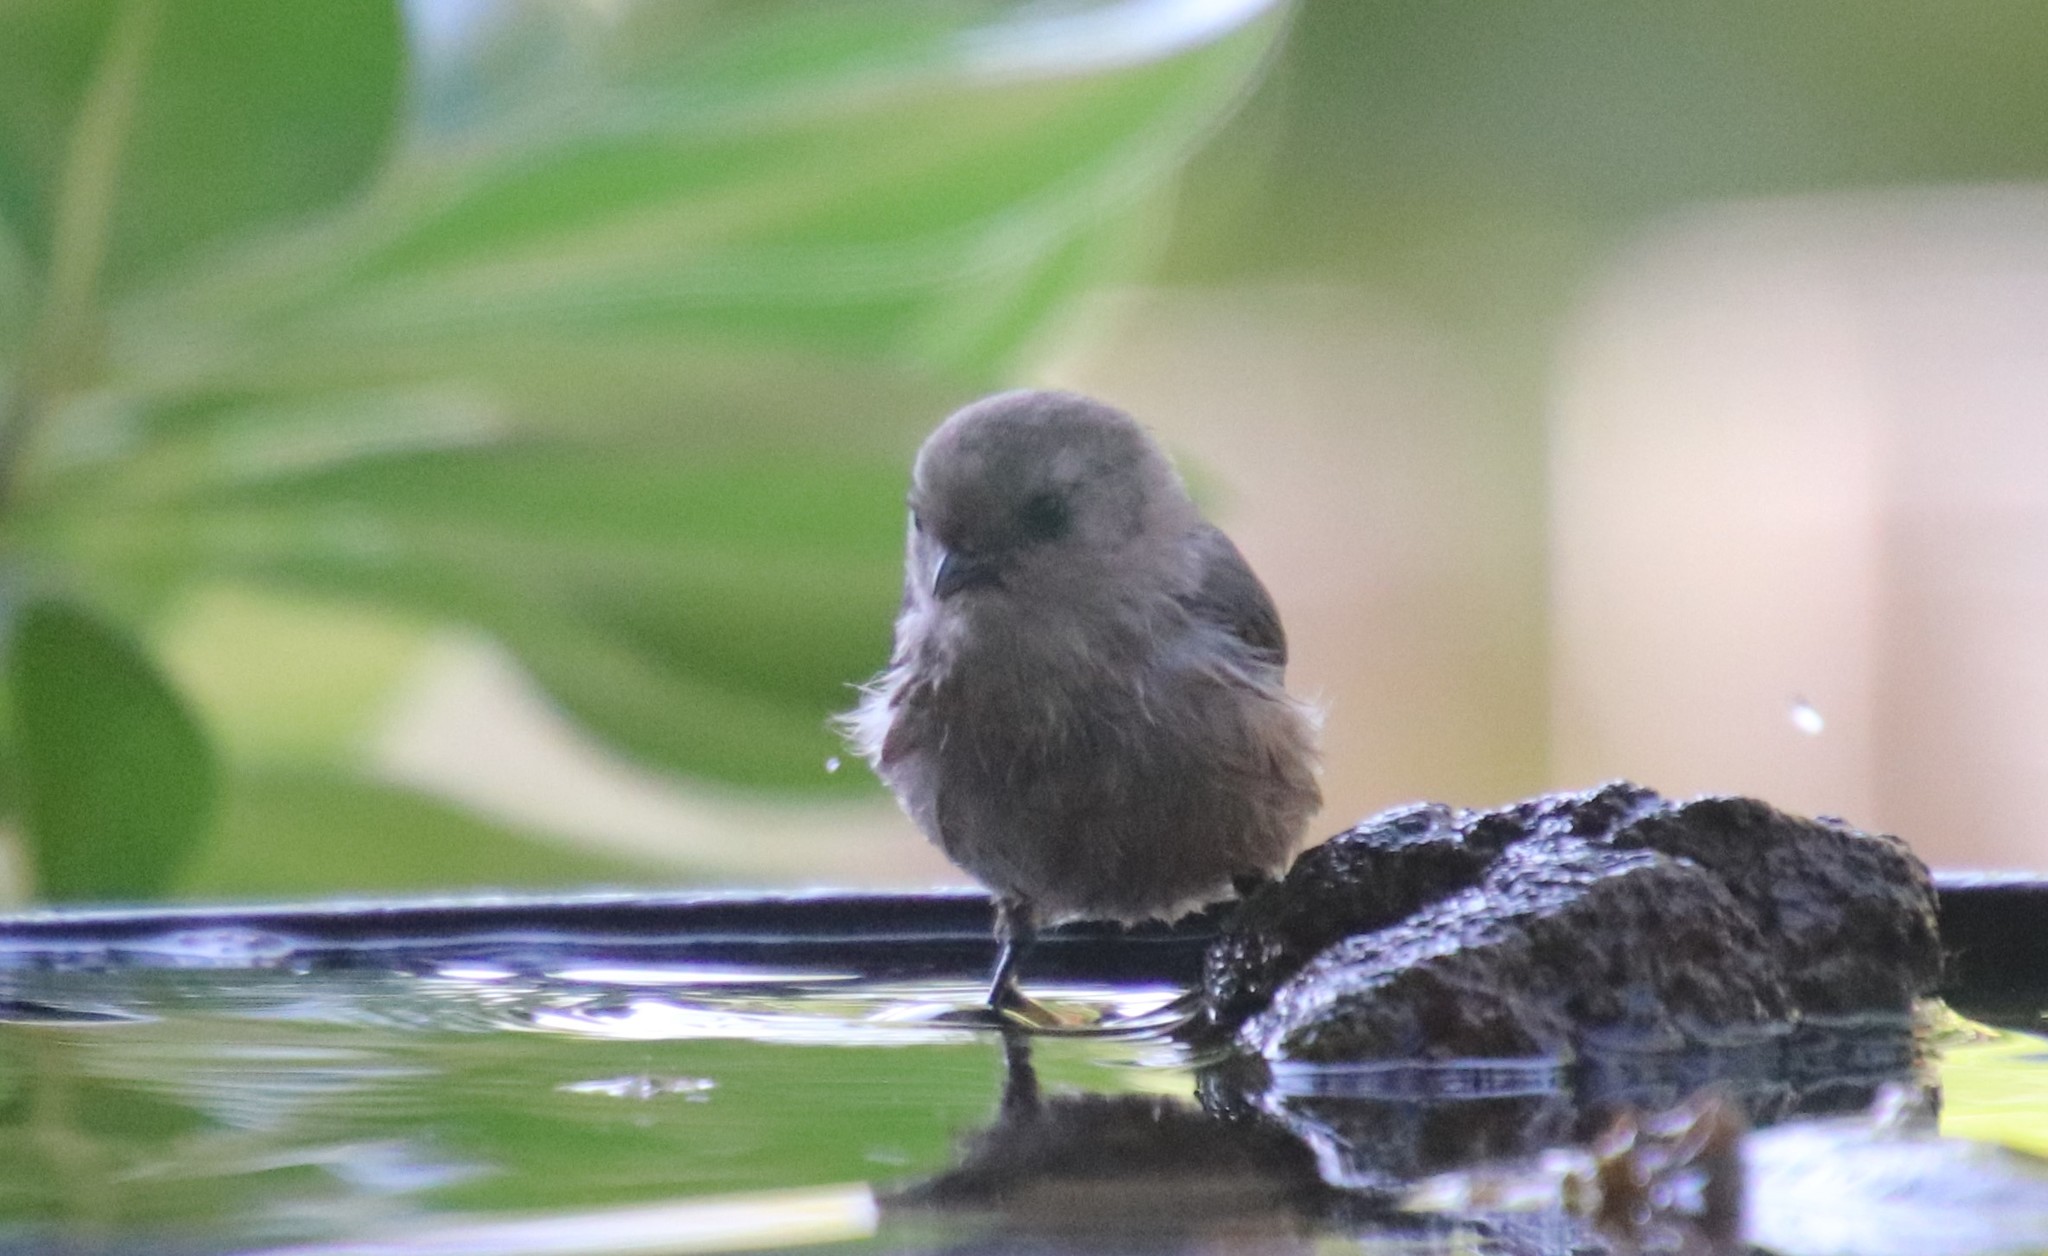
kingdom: Animalia
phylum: Chordata
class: Aves
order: Passeriformes
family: Aegithalidae
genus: Psaltriparus
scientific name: Psaltriparus minimus
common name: American bushtit
